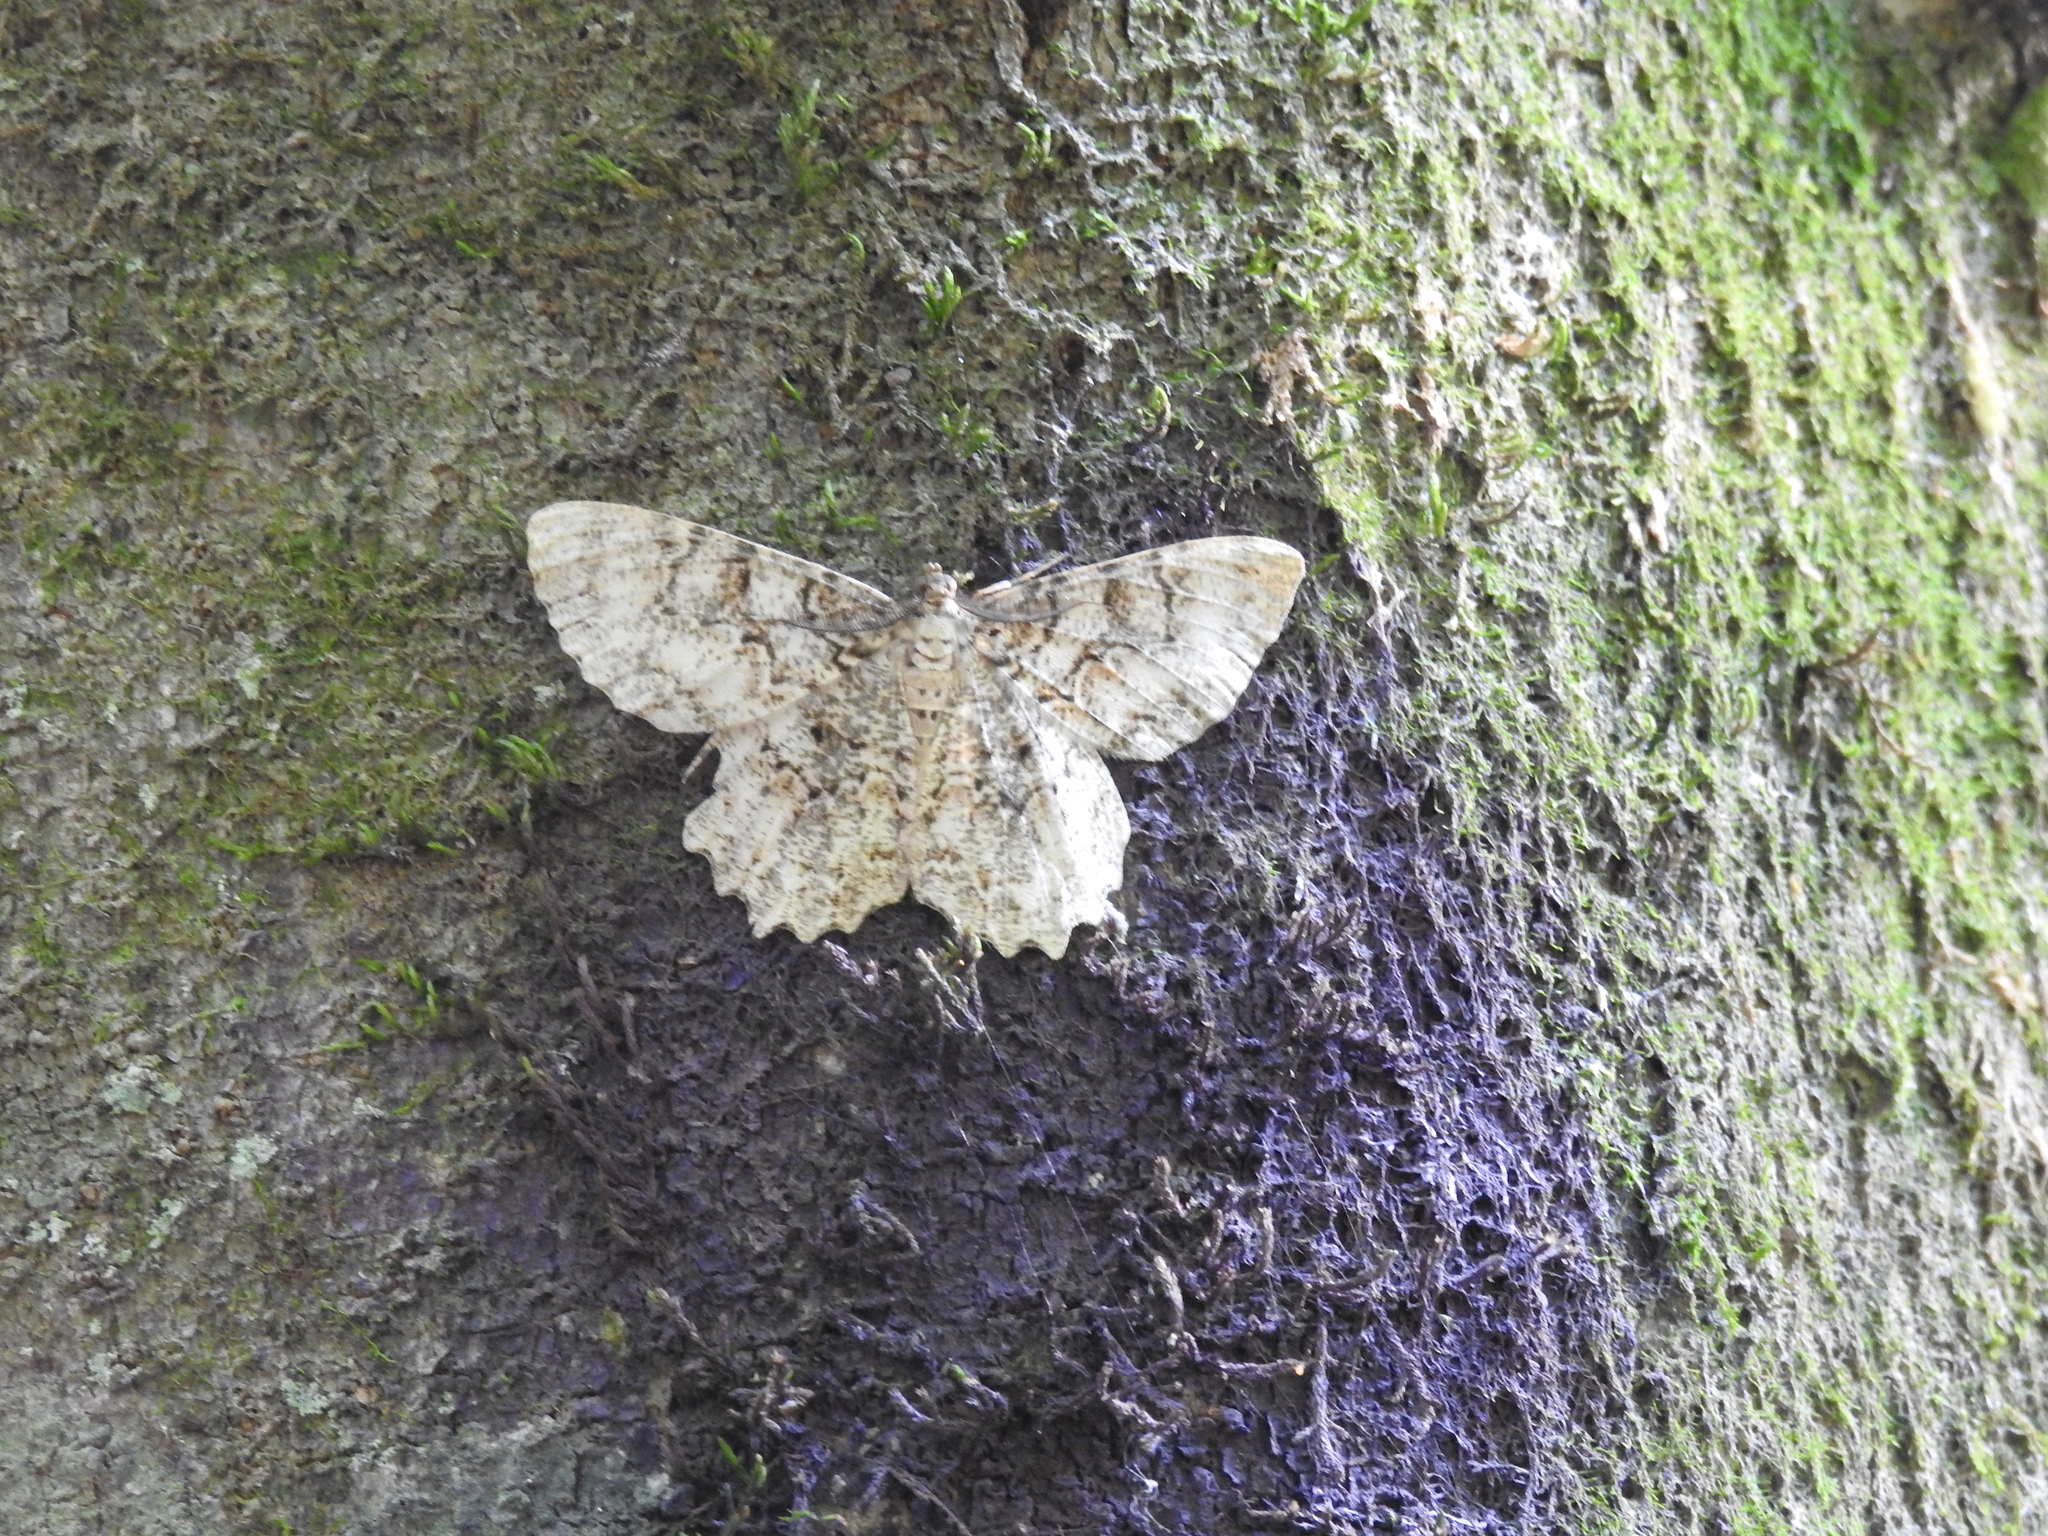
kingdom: Animalia
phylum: Arthropoda
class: Insecta
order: Lepidoptera
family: Geometridae
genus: Epimecis
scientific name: Epimecis hortaria
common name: Tulip-tree beauty
